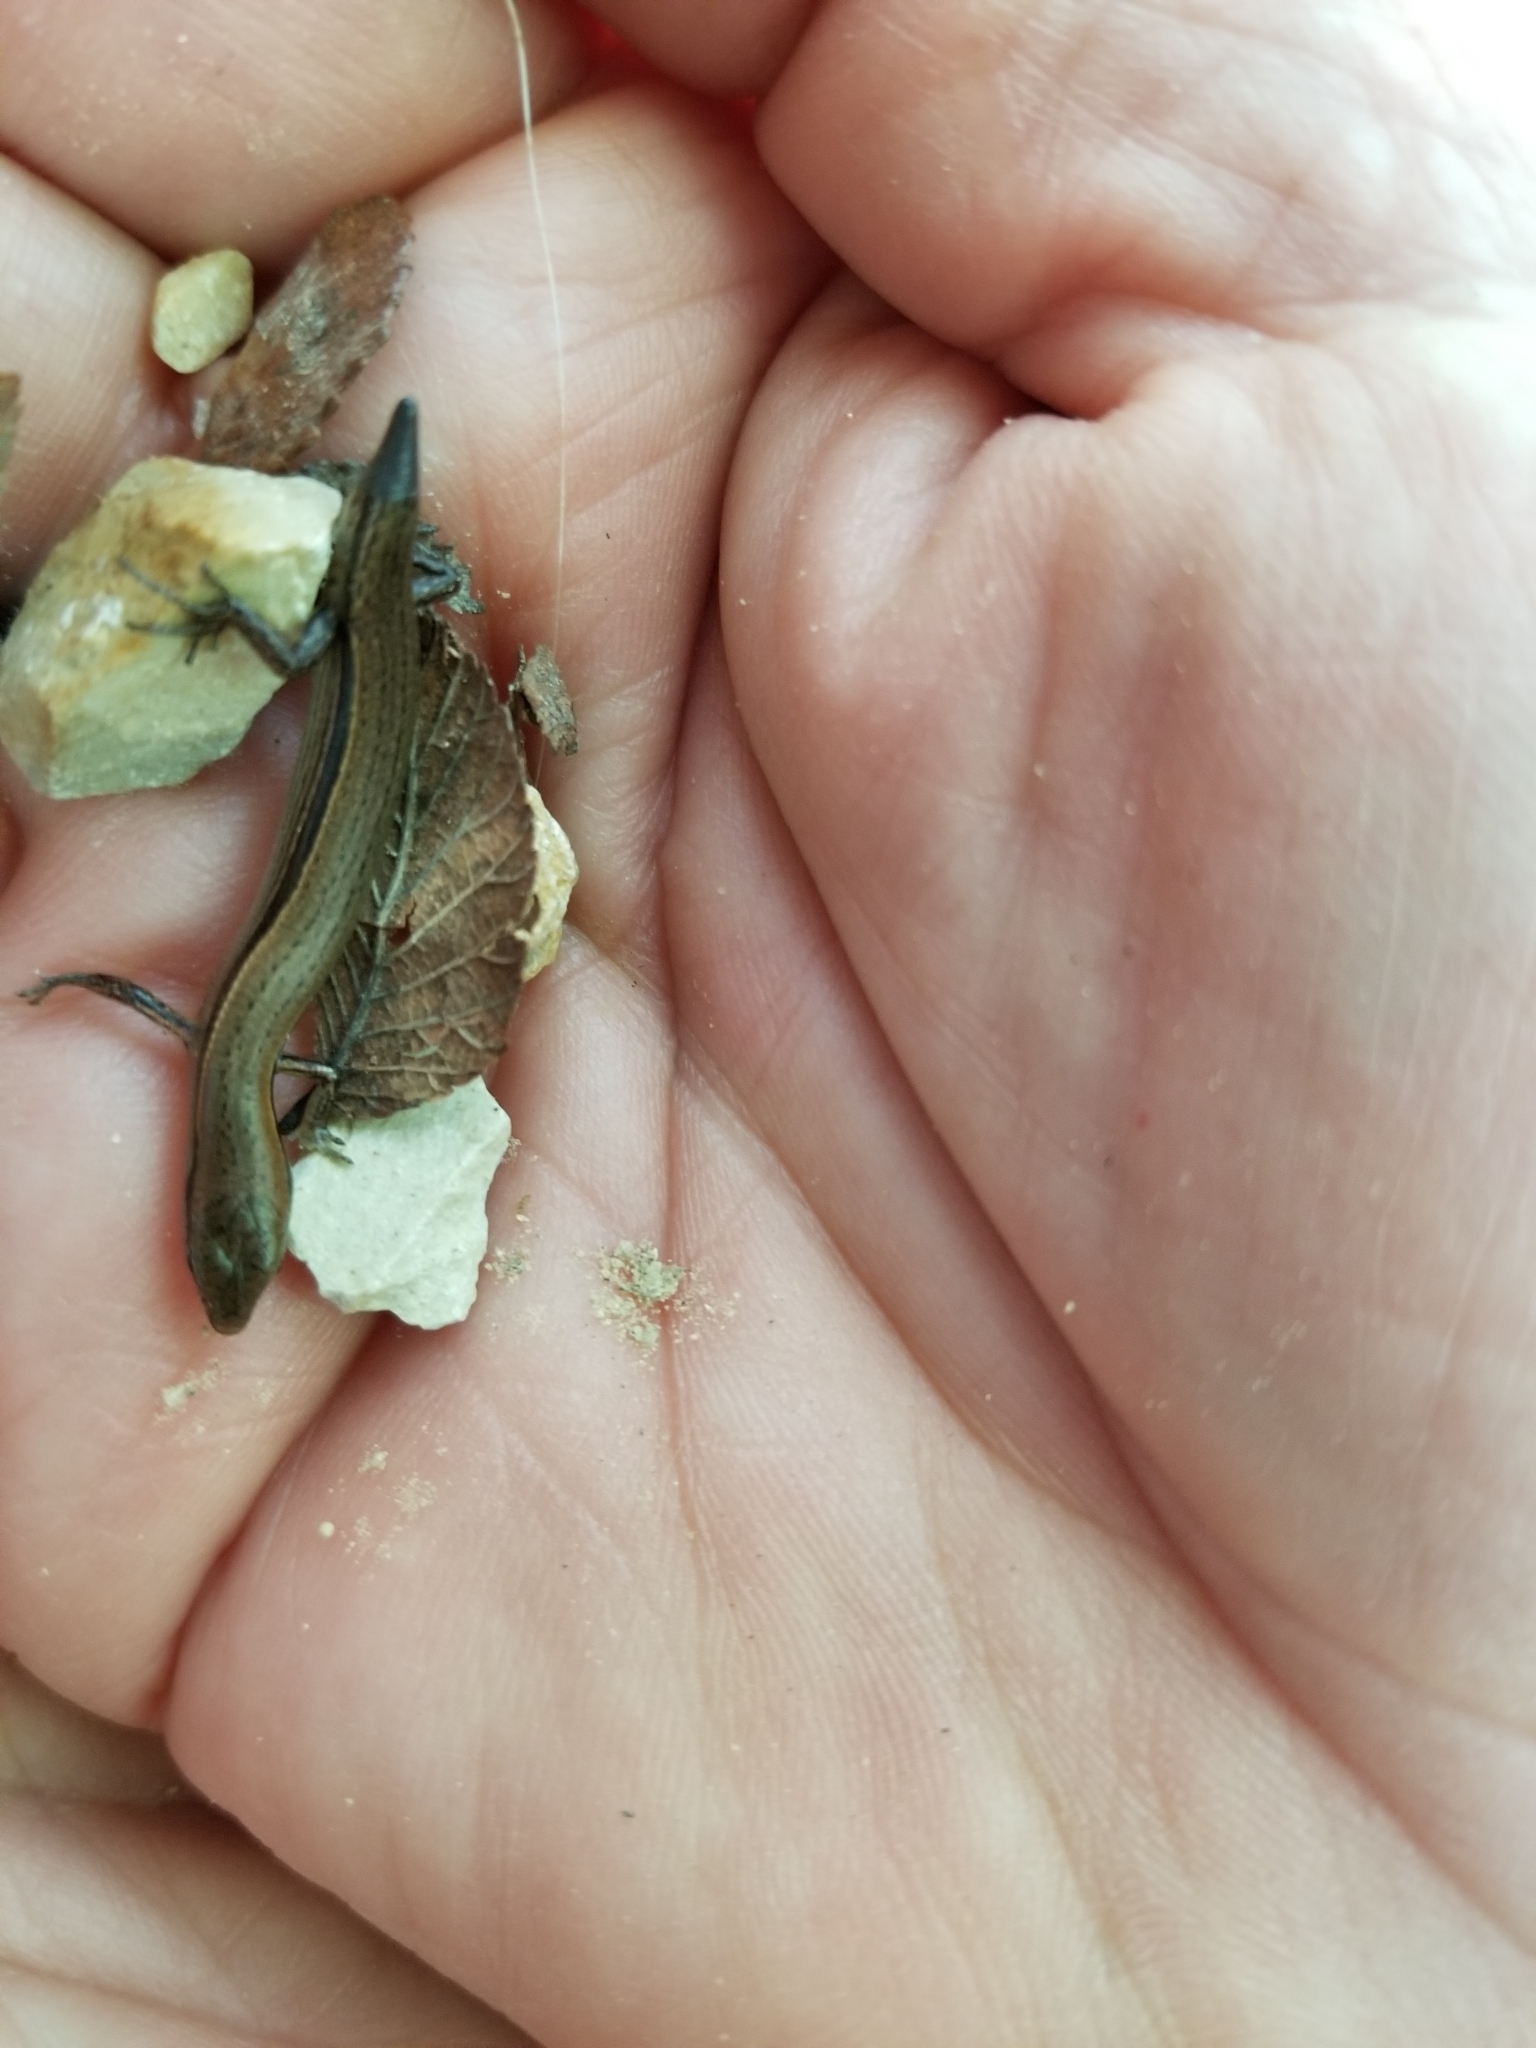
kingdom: Animalia
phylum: Chordata
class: Squamata
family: Scincidae
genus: Scincella
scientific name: Scincella lateralis
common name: Ground skink
